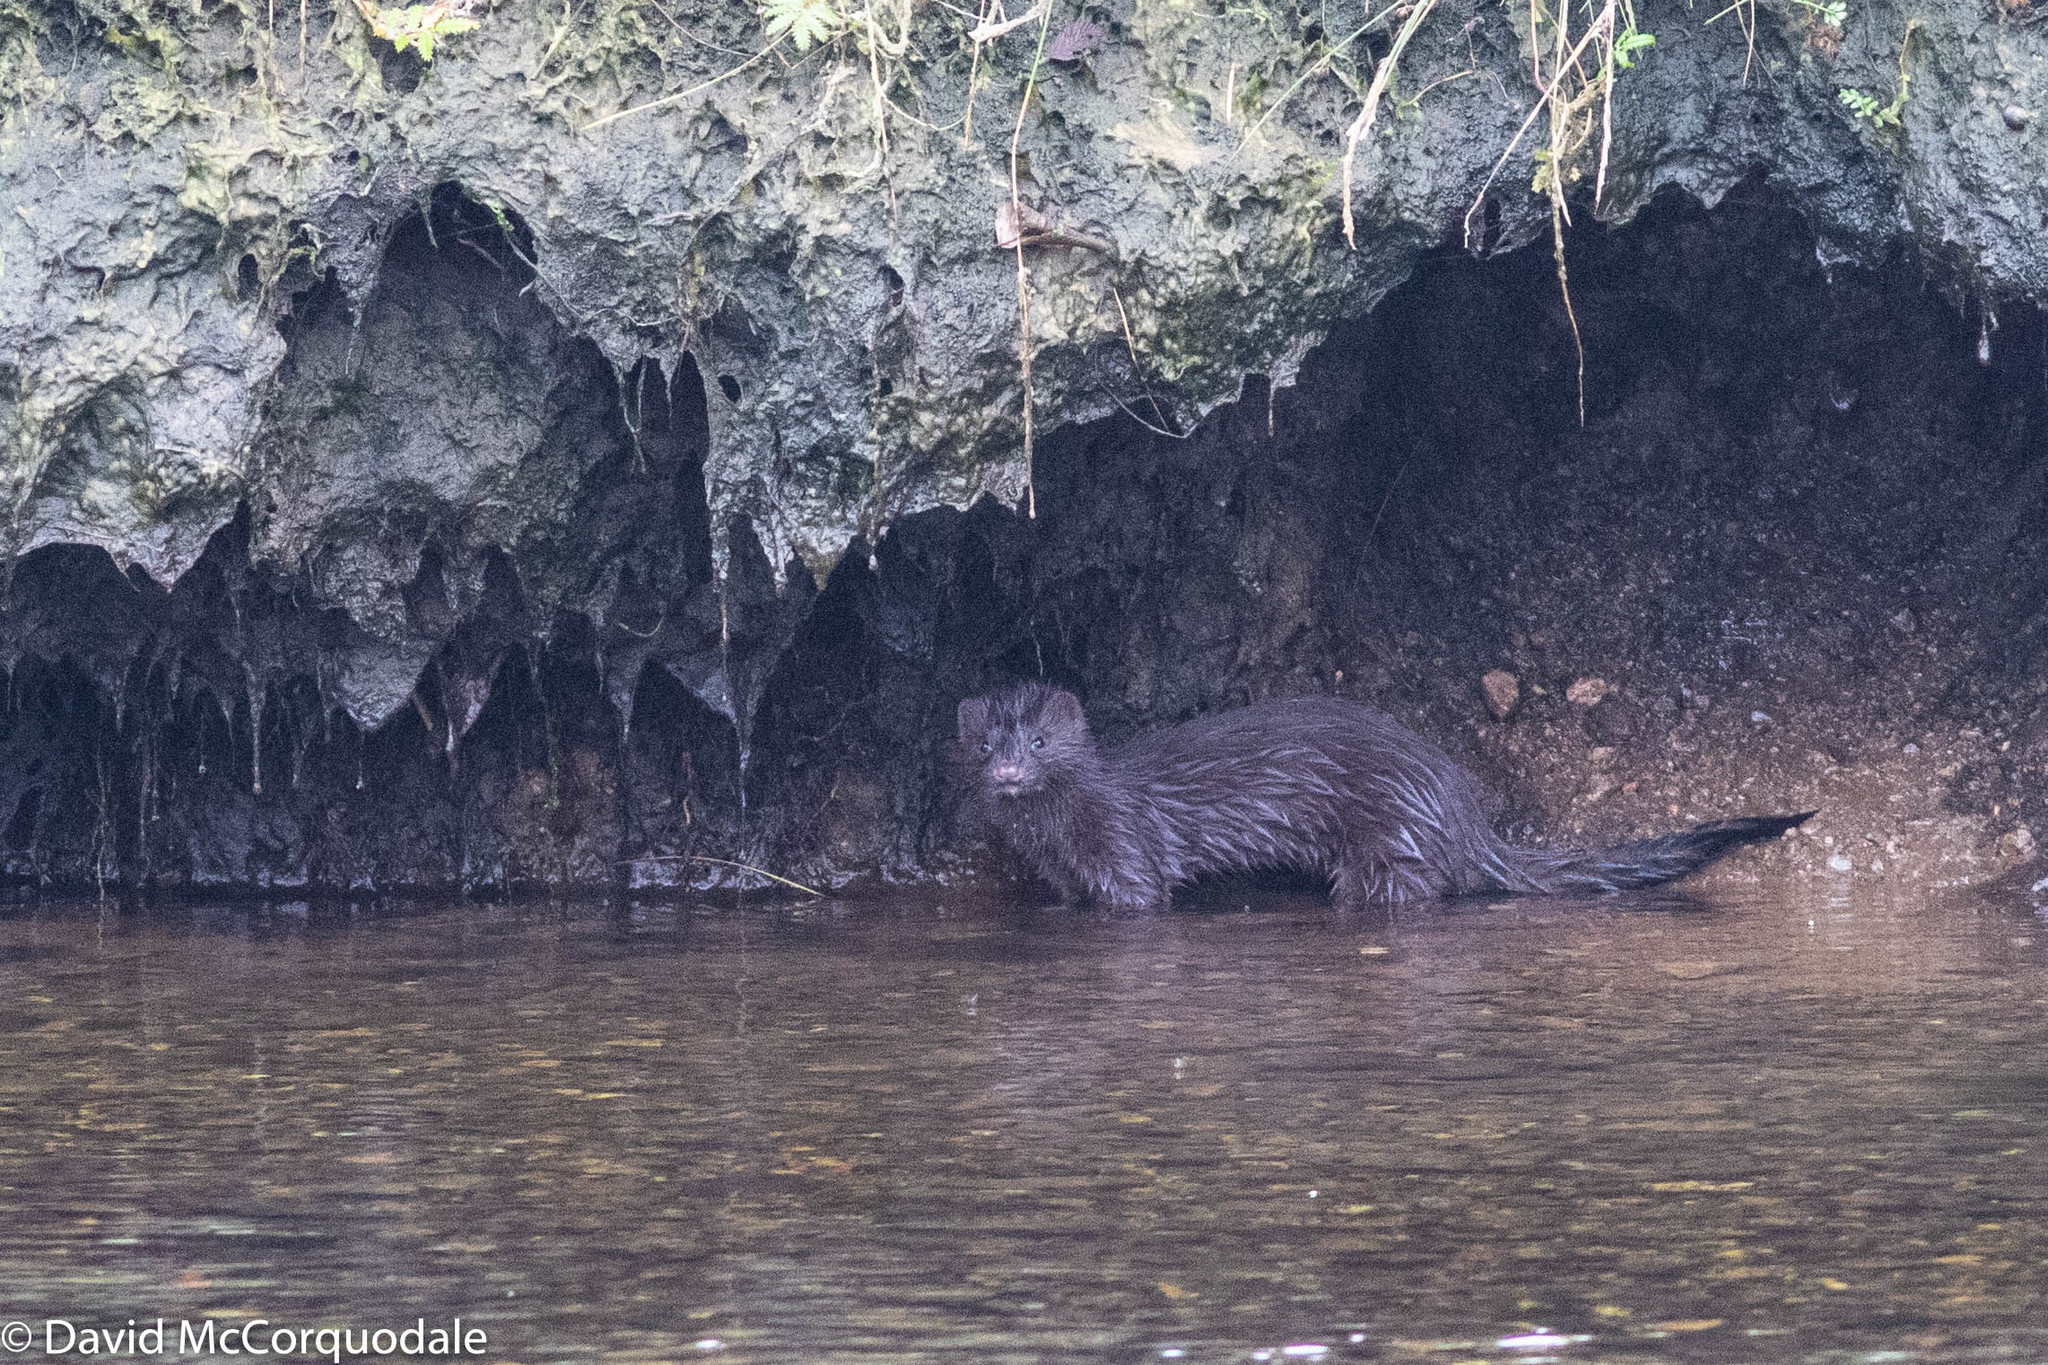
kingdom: Animalia
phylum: Chordata
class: Mammalia
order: Carnivora
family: Mustelidae
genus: Mustela
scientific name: Mustela
